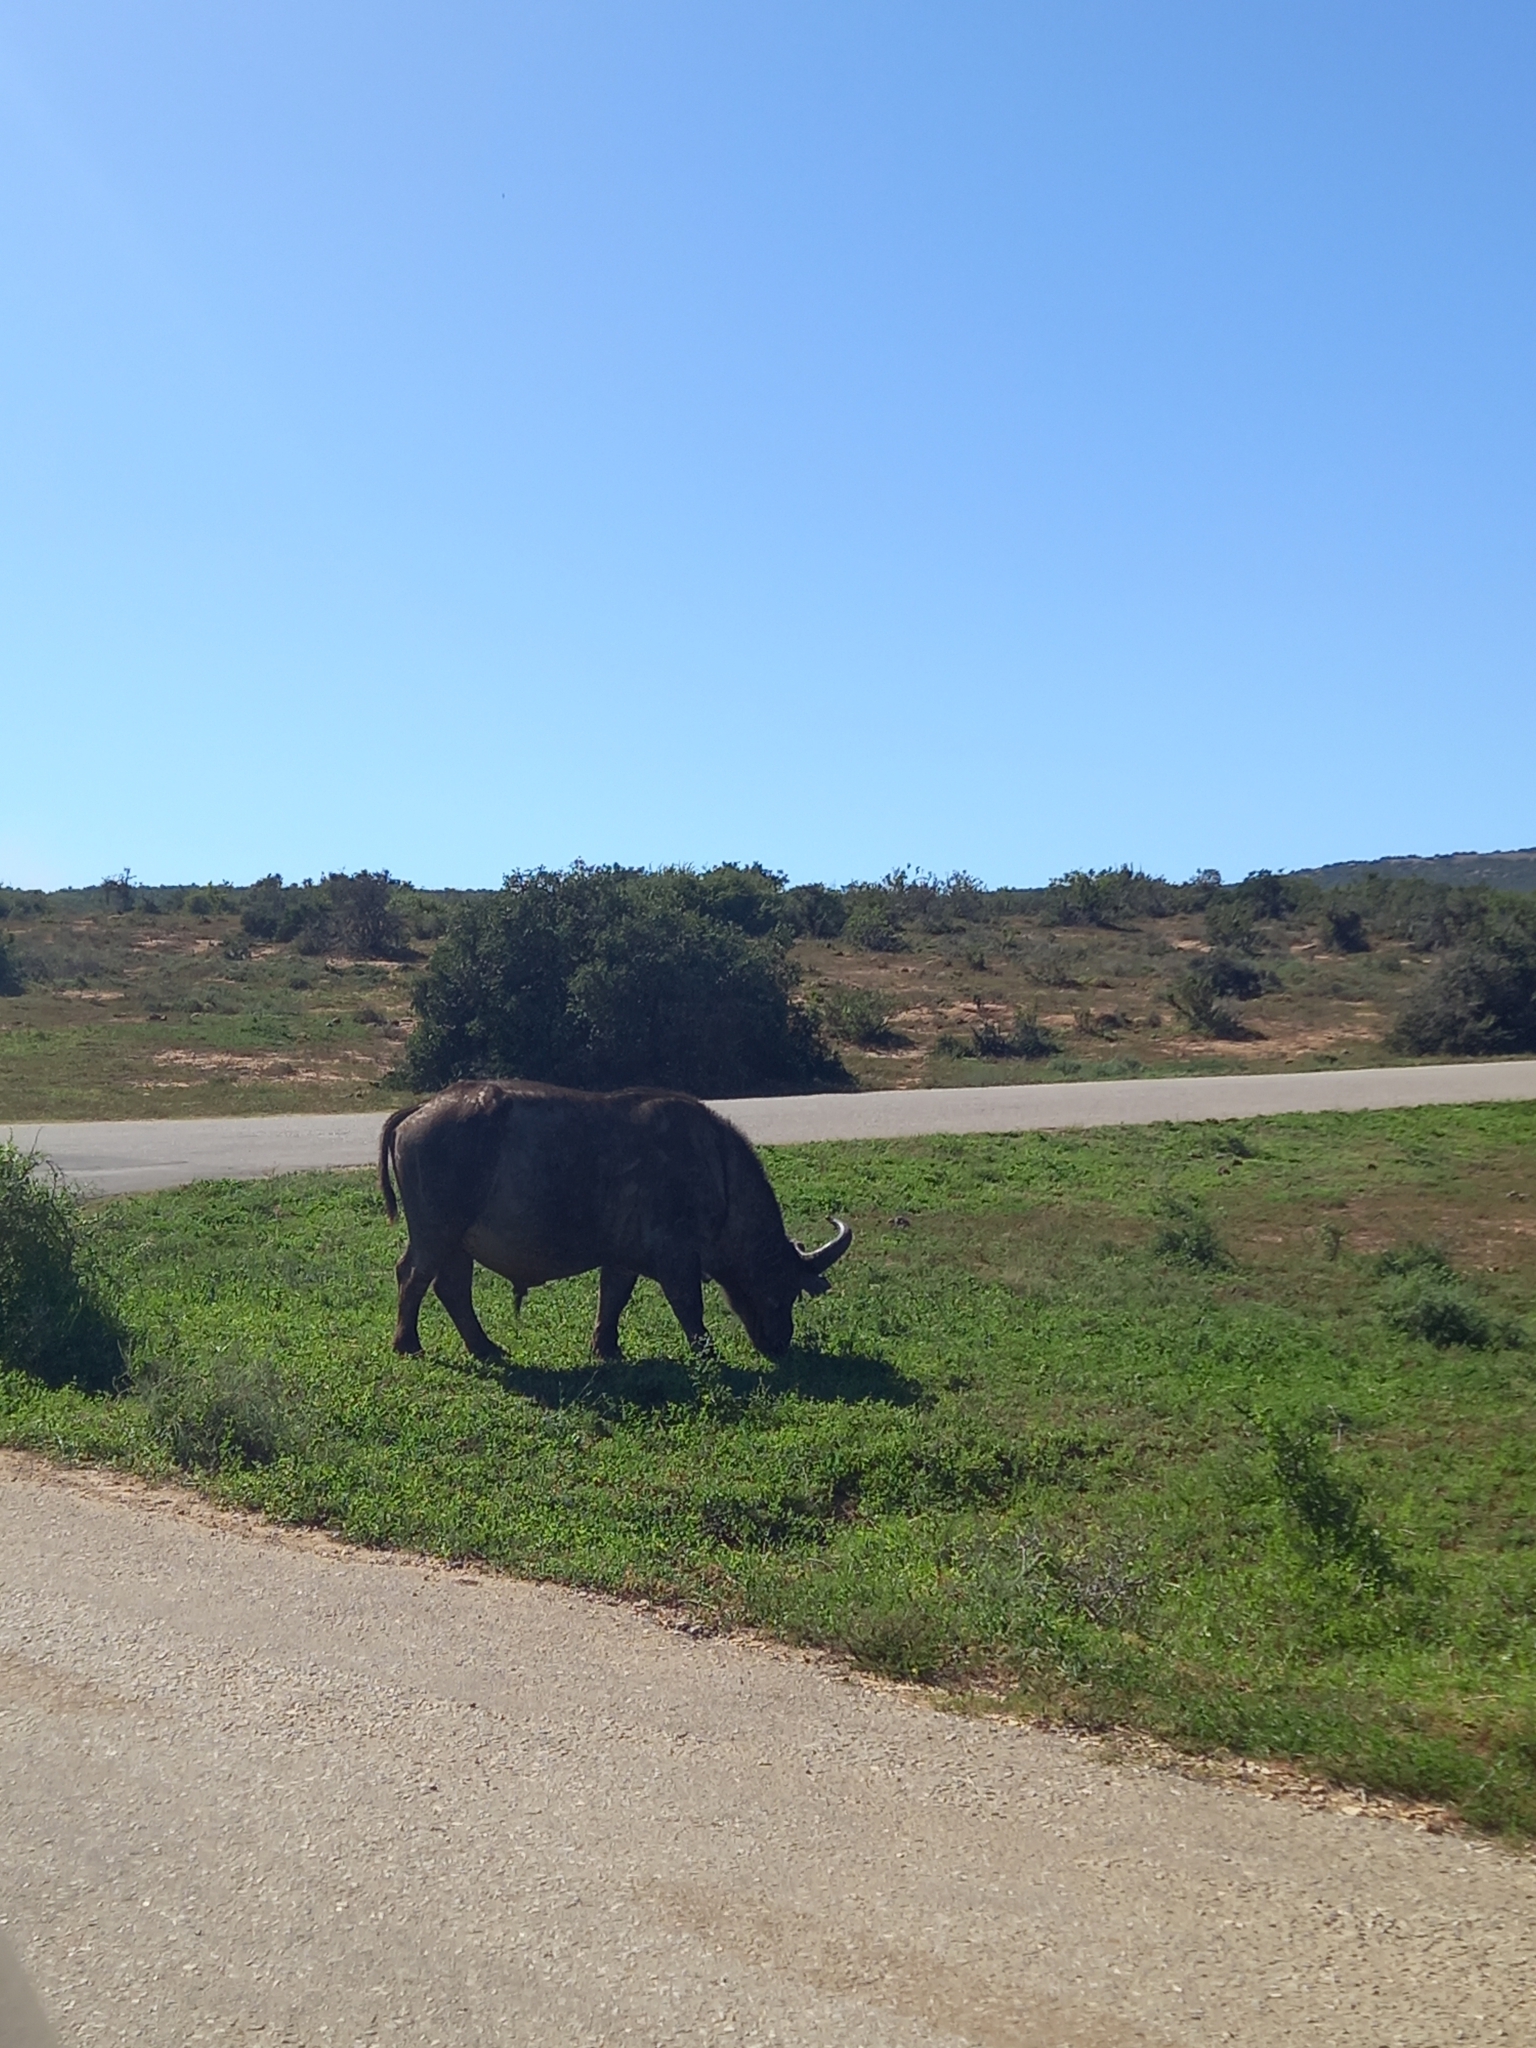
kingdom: Animalia
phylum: Chordata
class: Mammalia
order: Artiodactyla
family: Bovidae
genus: Syncerus
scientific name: Syncerus caffer
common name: African buffalo
